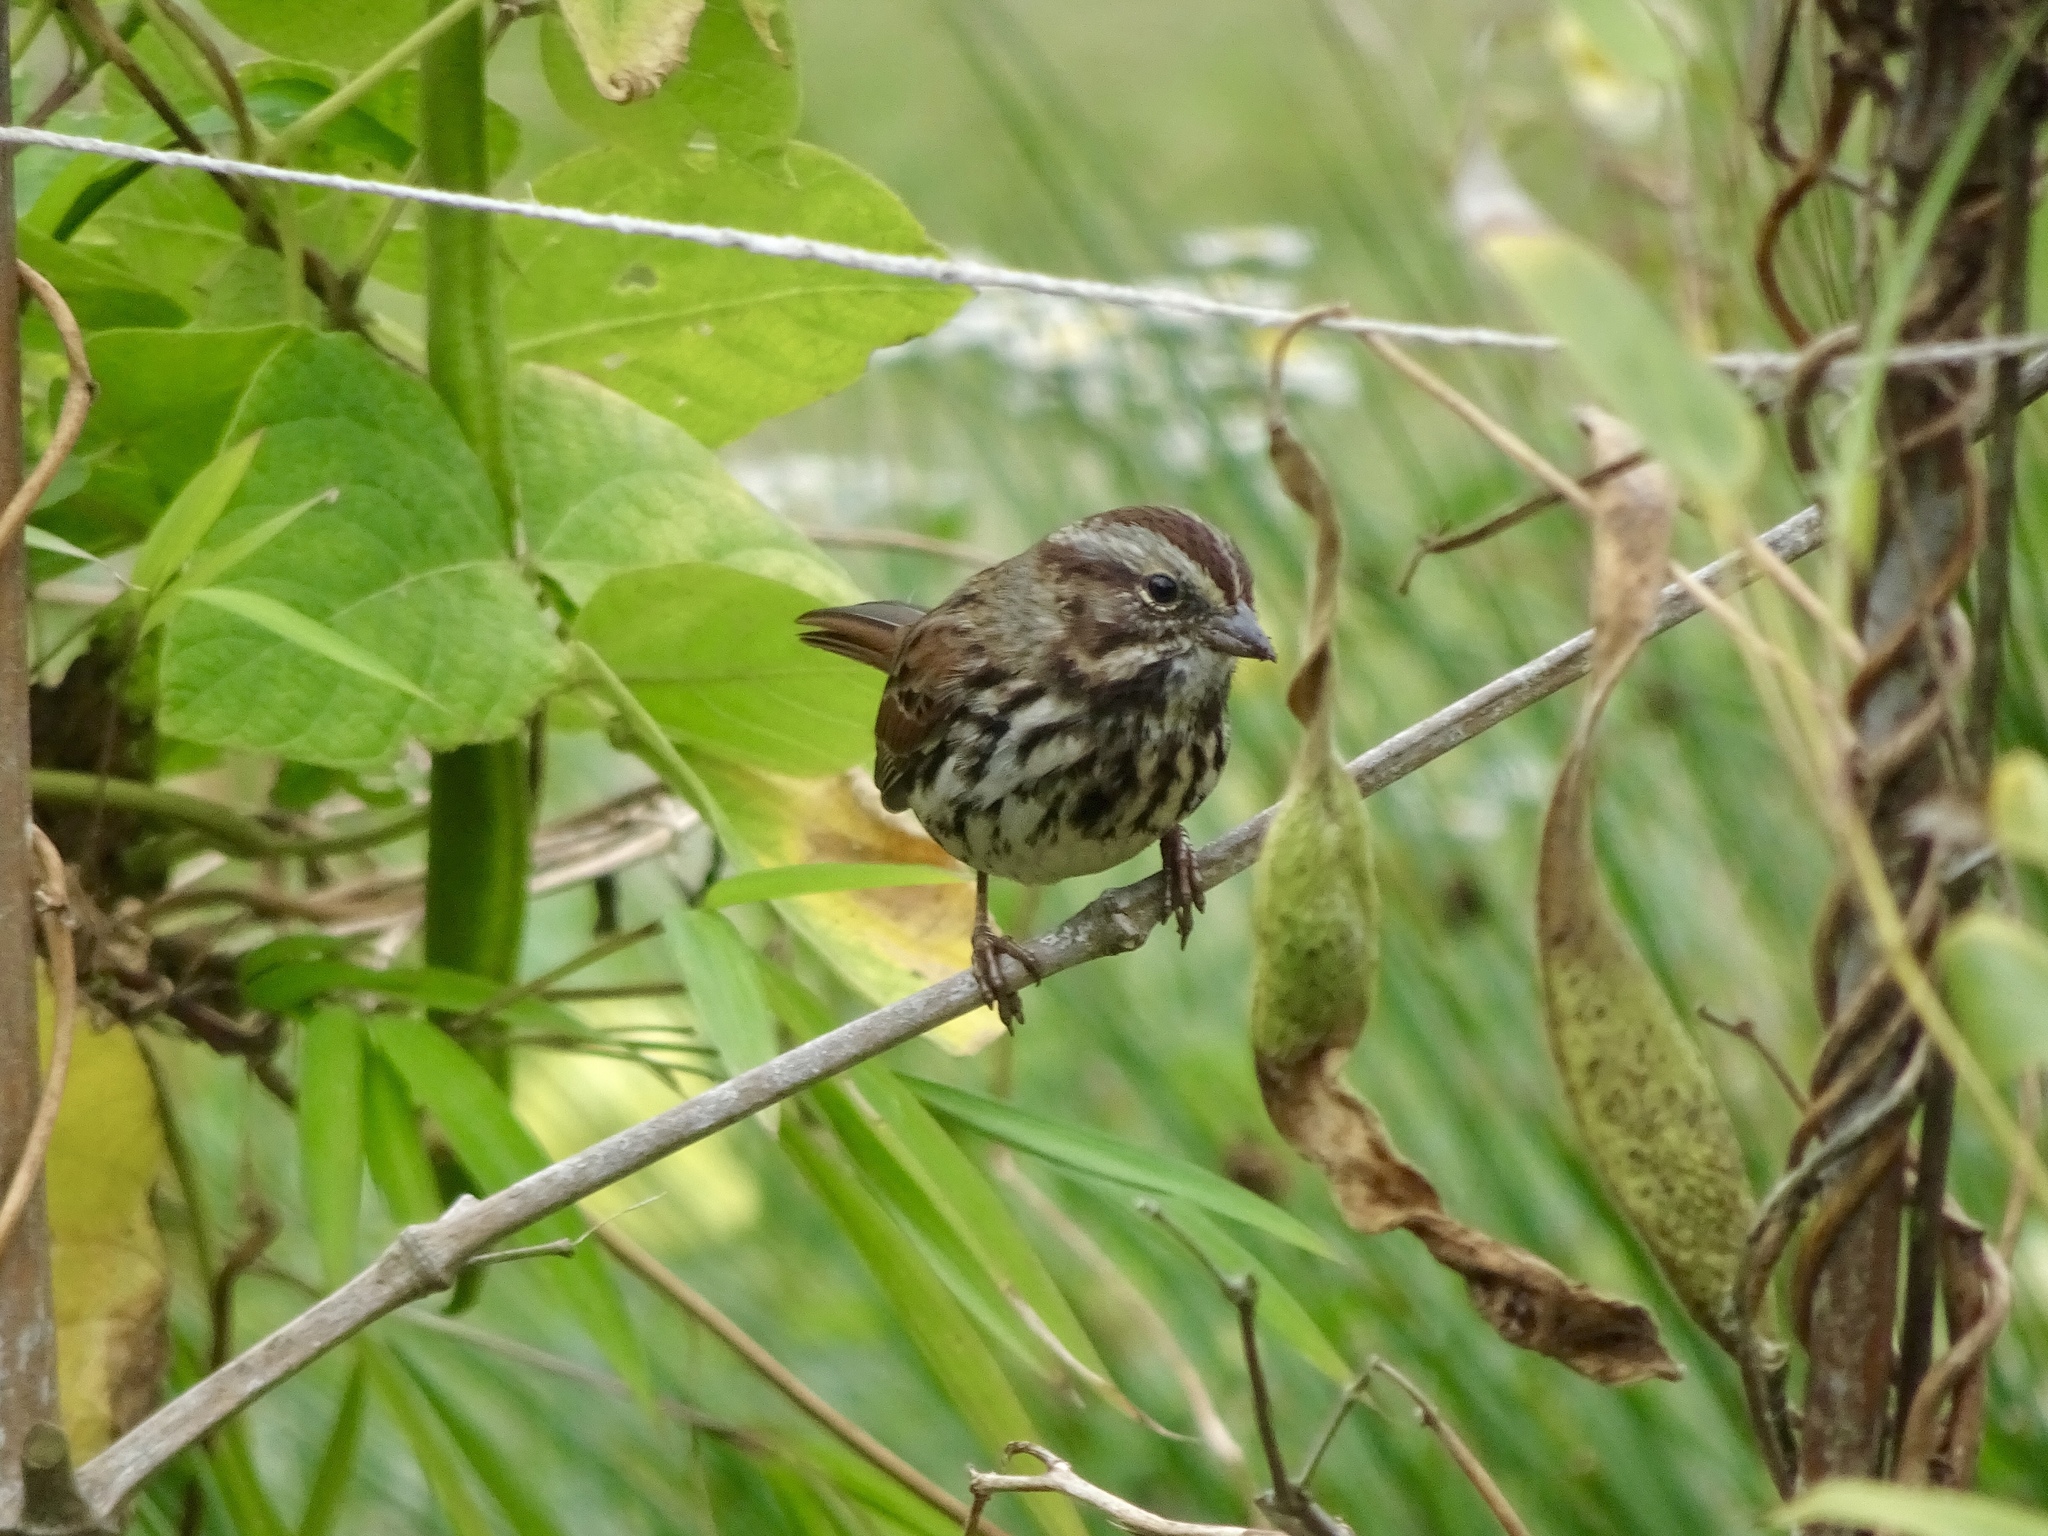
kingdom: Animalia
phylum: Chordata
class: Aves
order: Passeriformes
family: Passerellidae
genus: Melospiza
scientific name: Melospiza melodia
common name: Song sparrow
